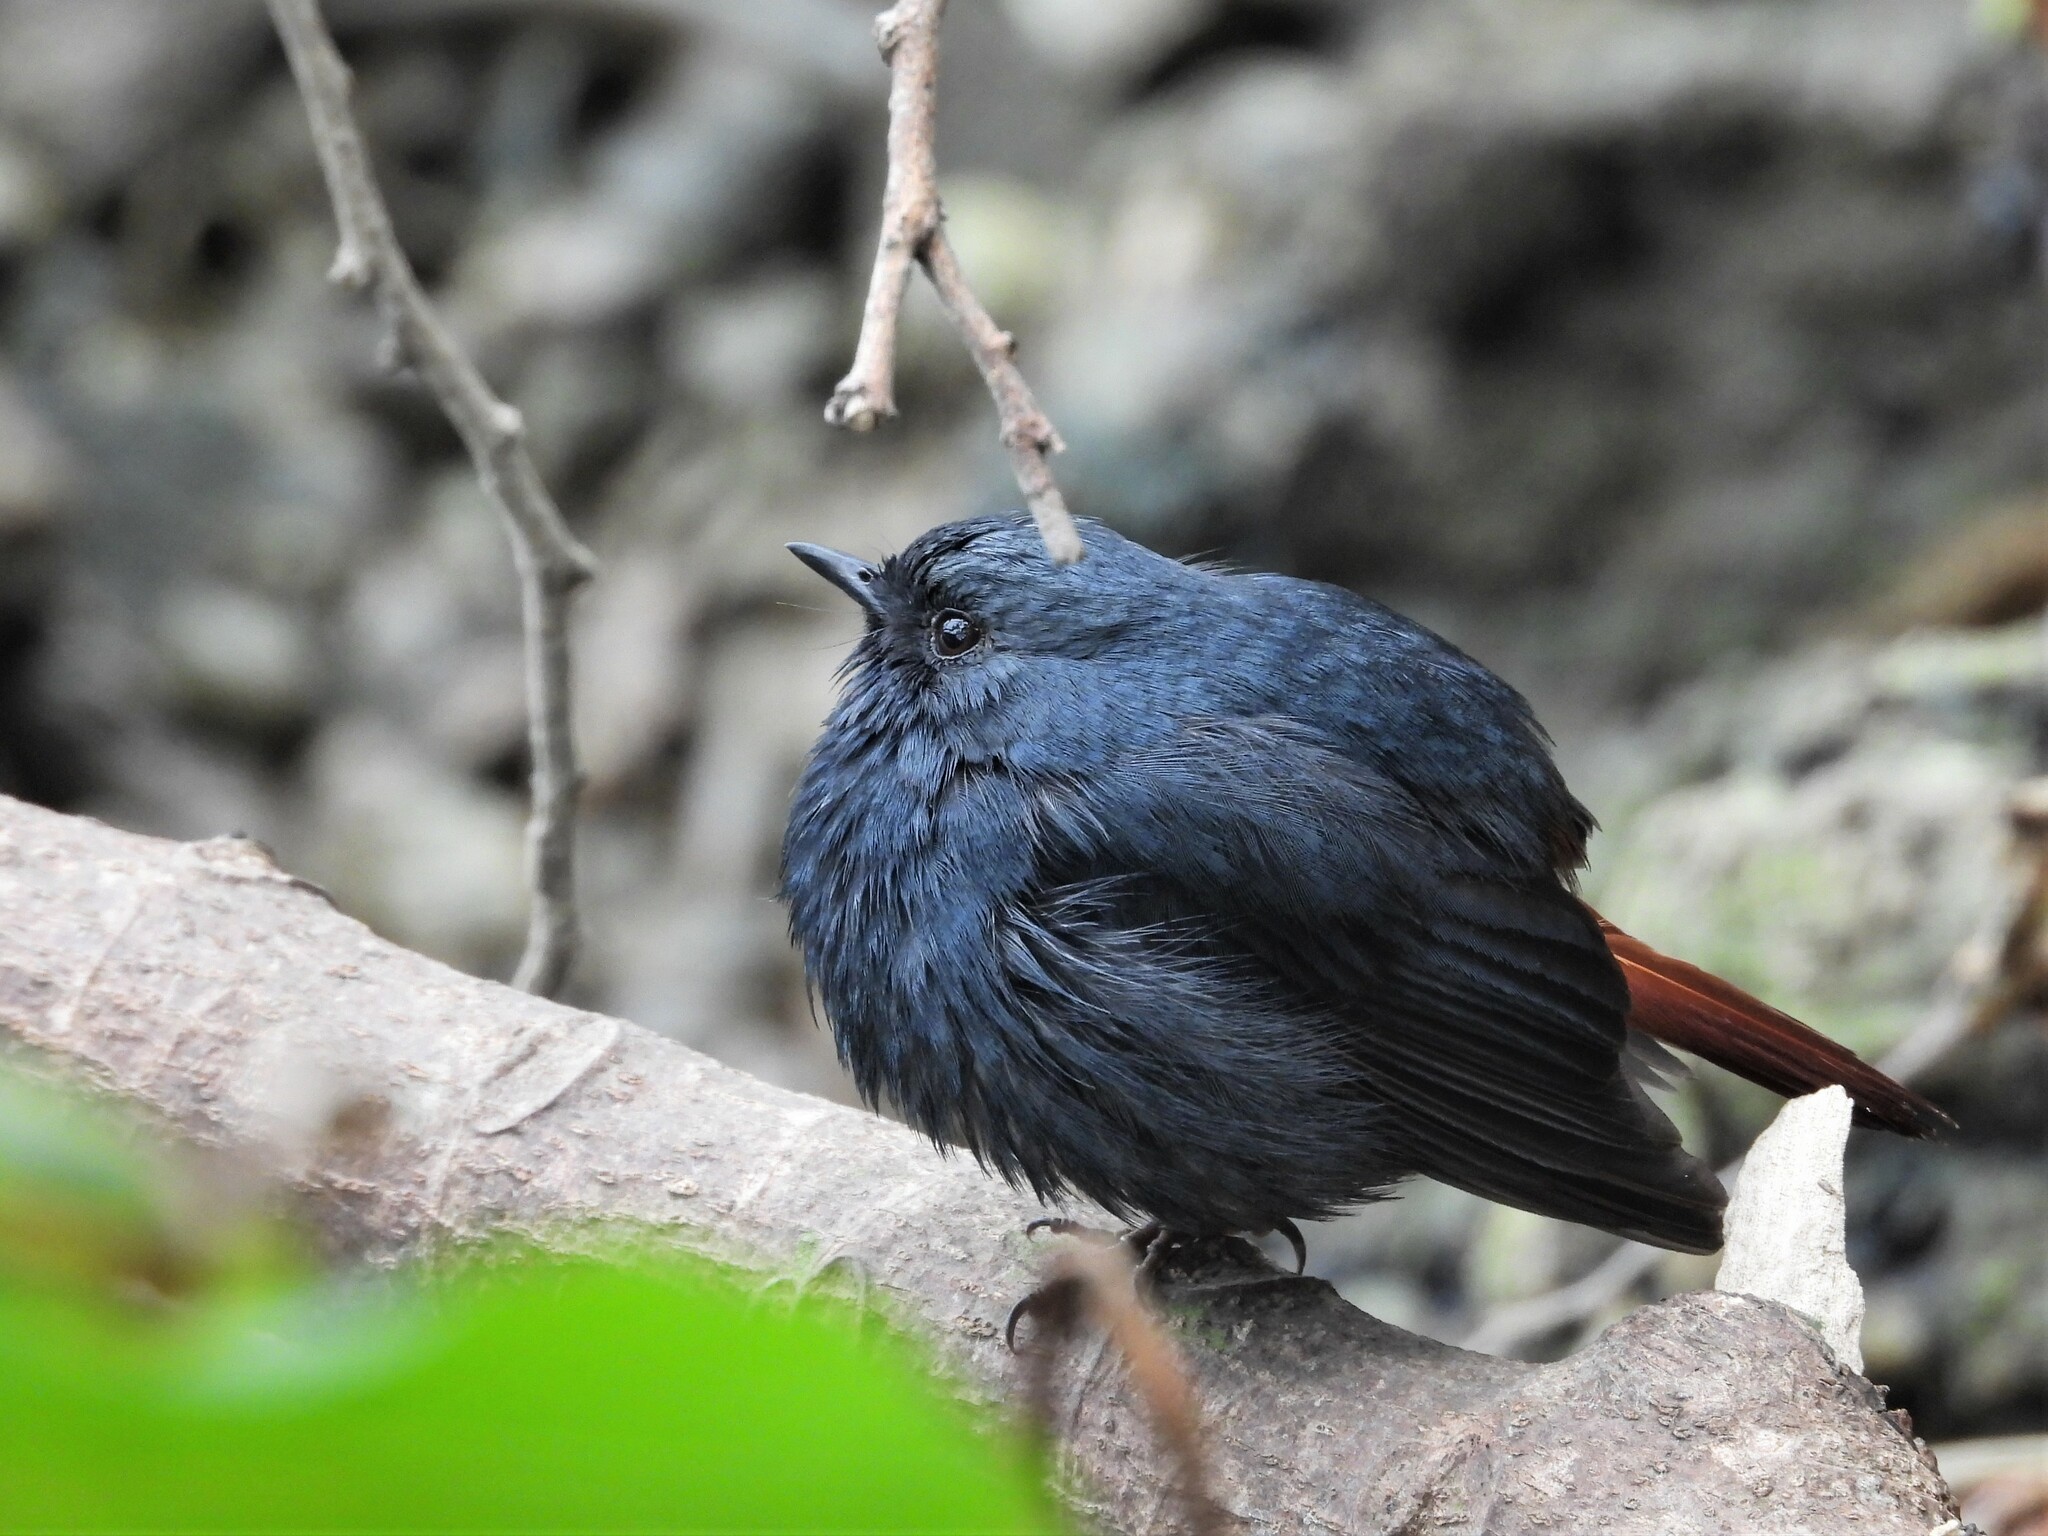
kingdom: Animalia
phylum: Chordata
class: Aves
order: Passeriformes
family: Muscicapidae
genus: Phoenicurus
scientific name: Phoenicurus fuliginosus
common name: Plumbeous water redstart
